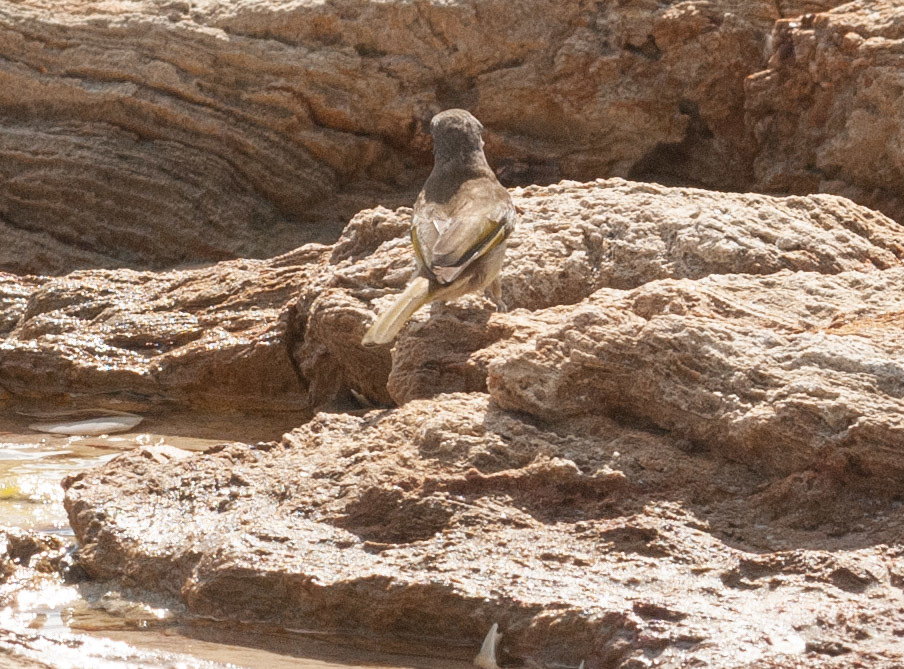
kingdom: Animalia
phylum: Chordata
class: Aves
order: Passeriformes
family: Meliphagidae
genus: Lichmera
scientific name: Lichmera indistincta
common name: Brown honeyeater
